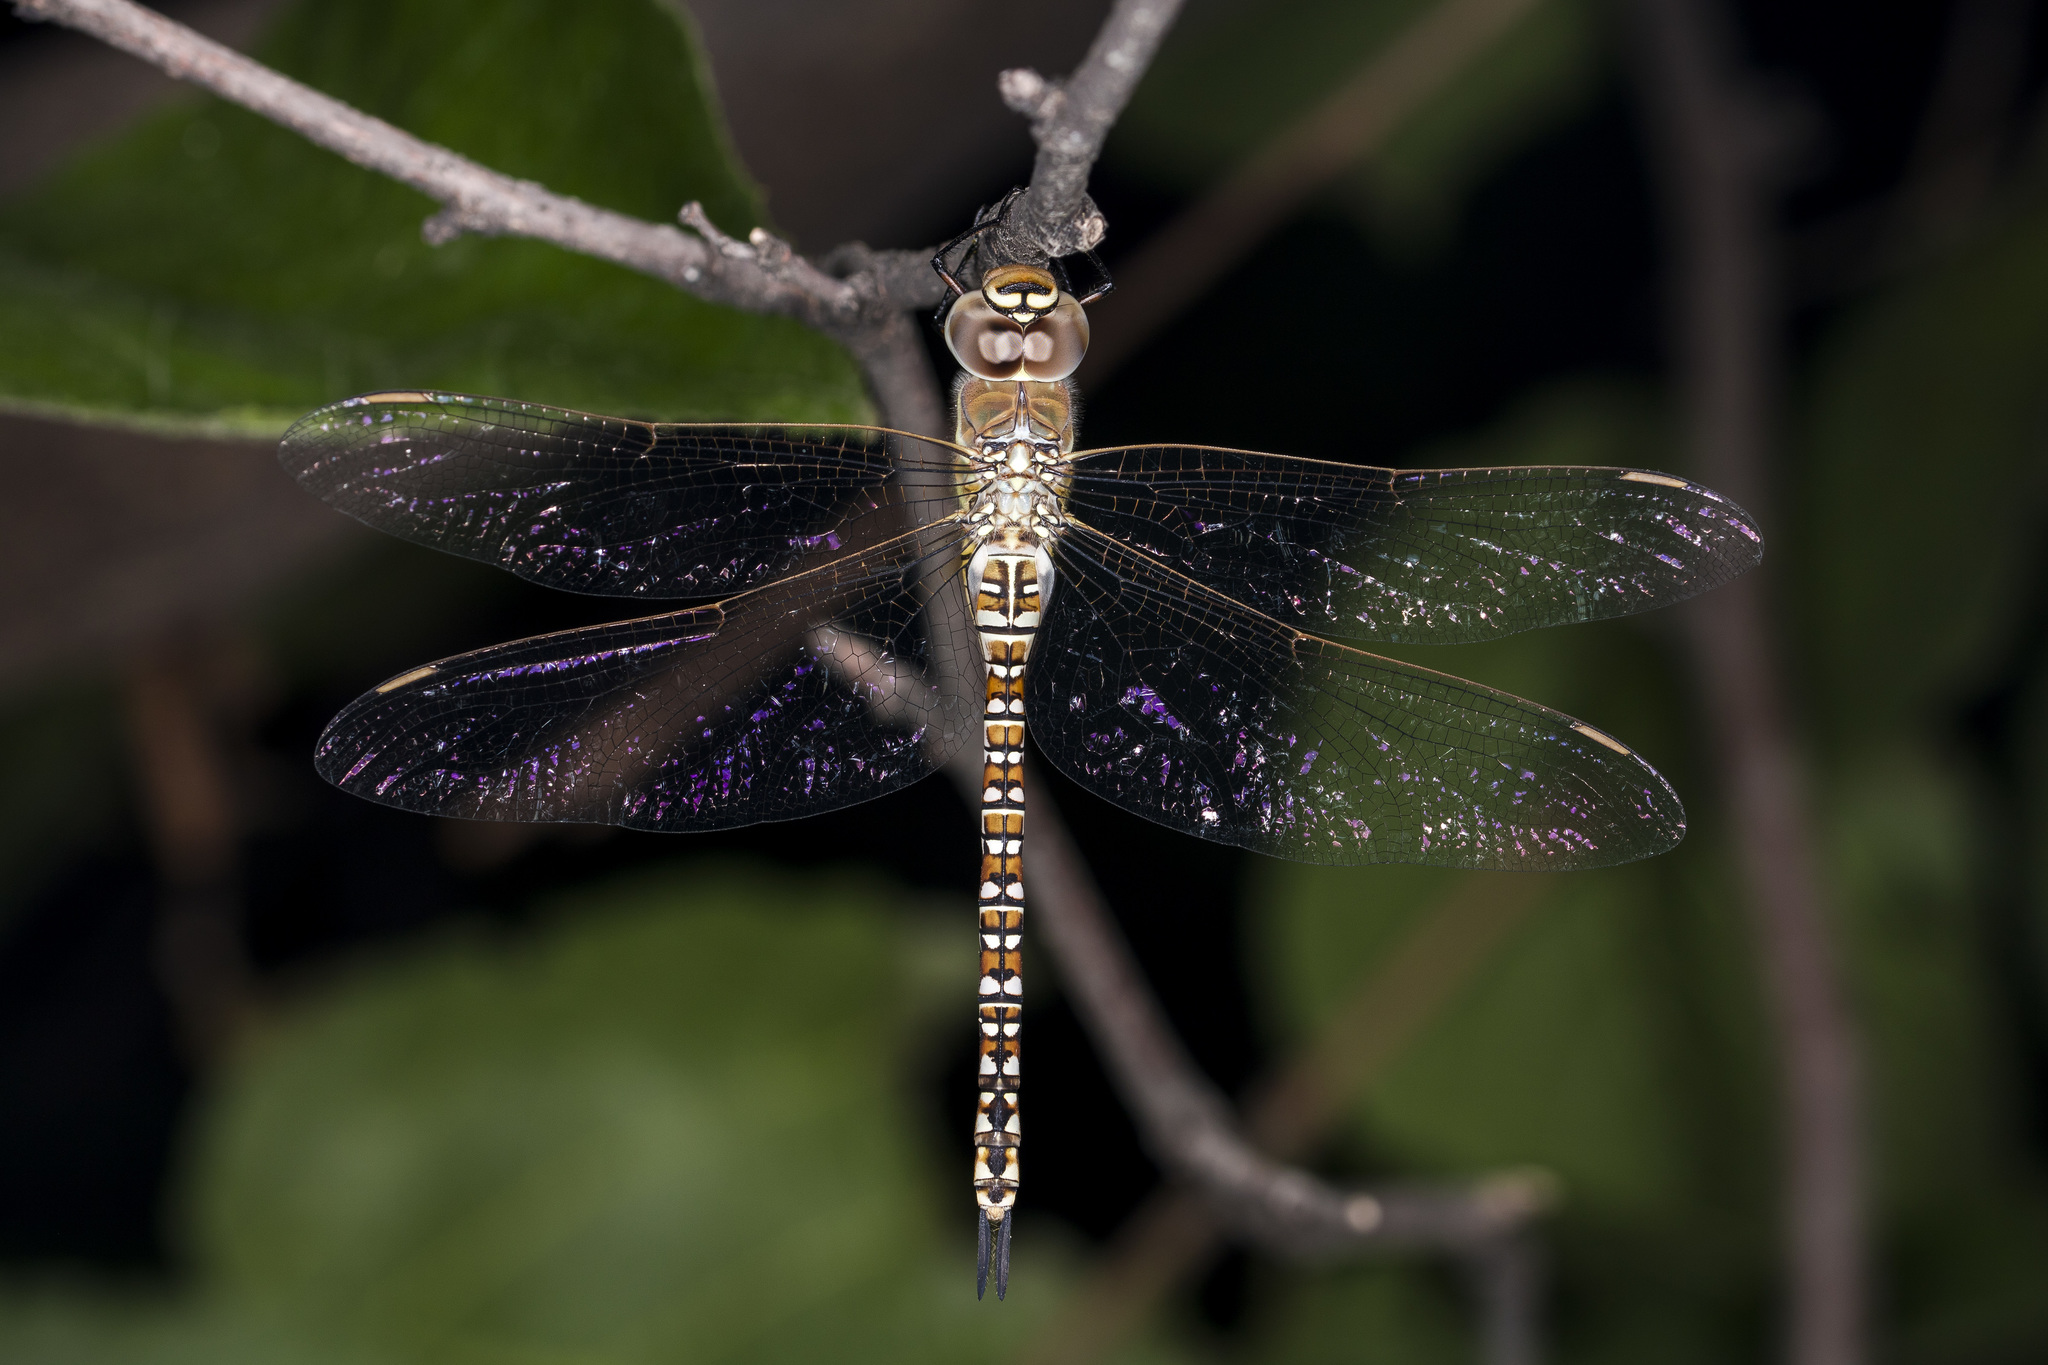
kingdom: Animalia
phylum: Arthropoda
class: Insecta
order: Odonata
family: Aeshnidae
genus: Aeshna
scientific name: Aeshna soneharai
